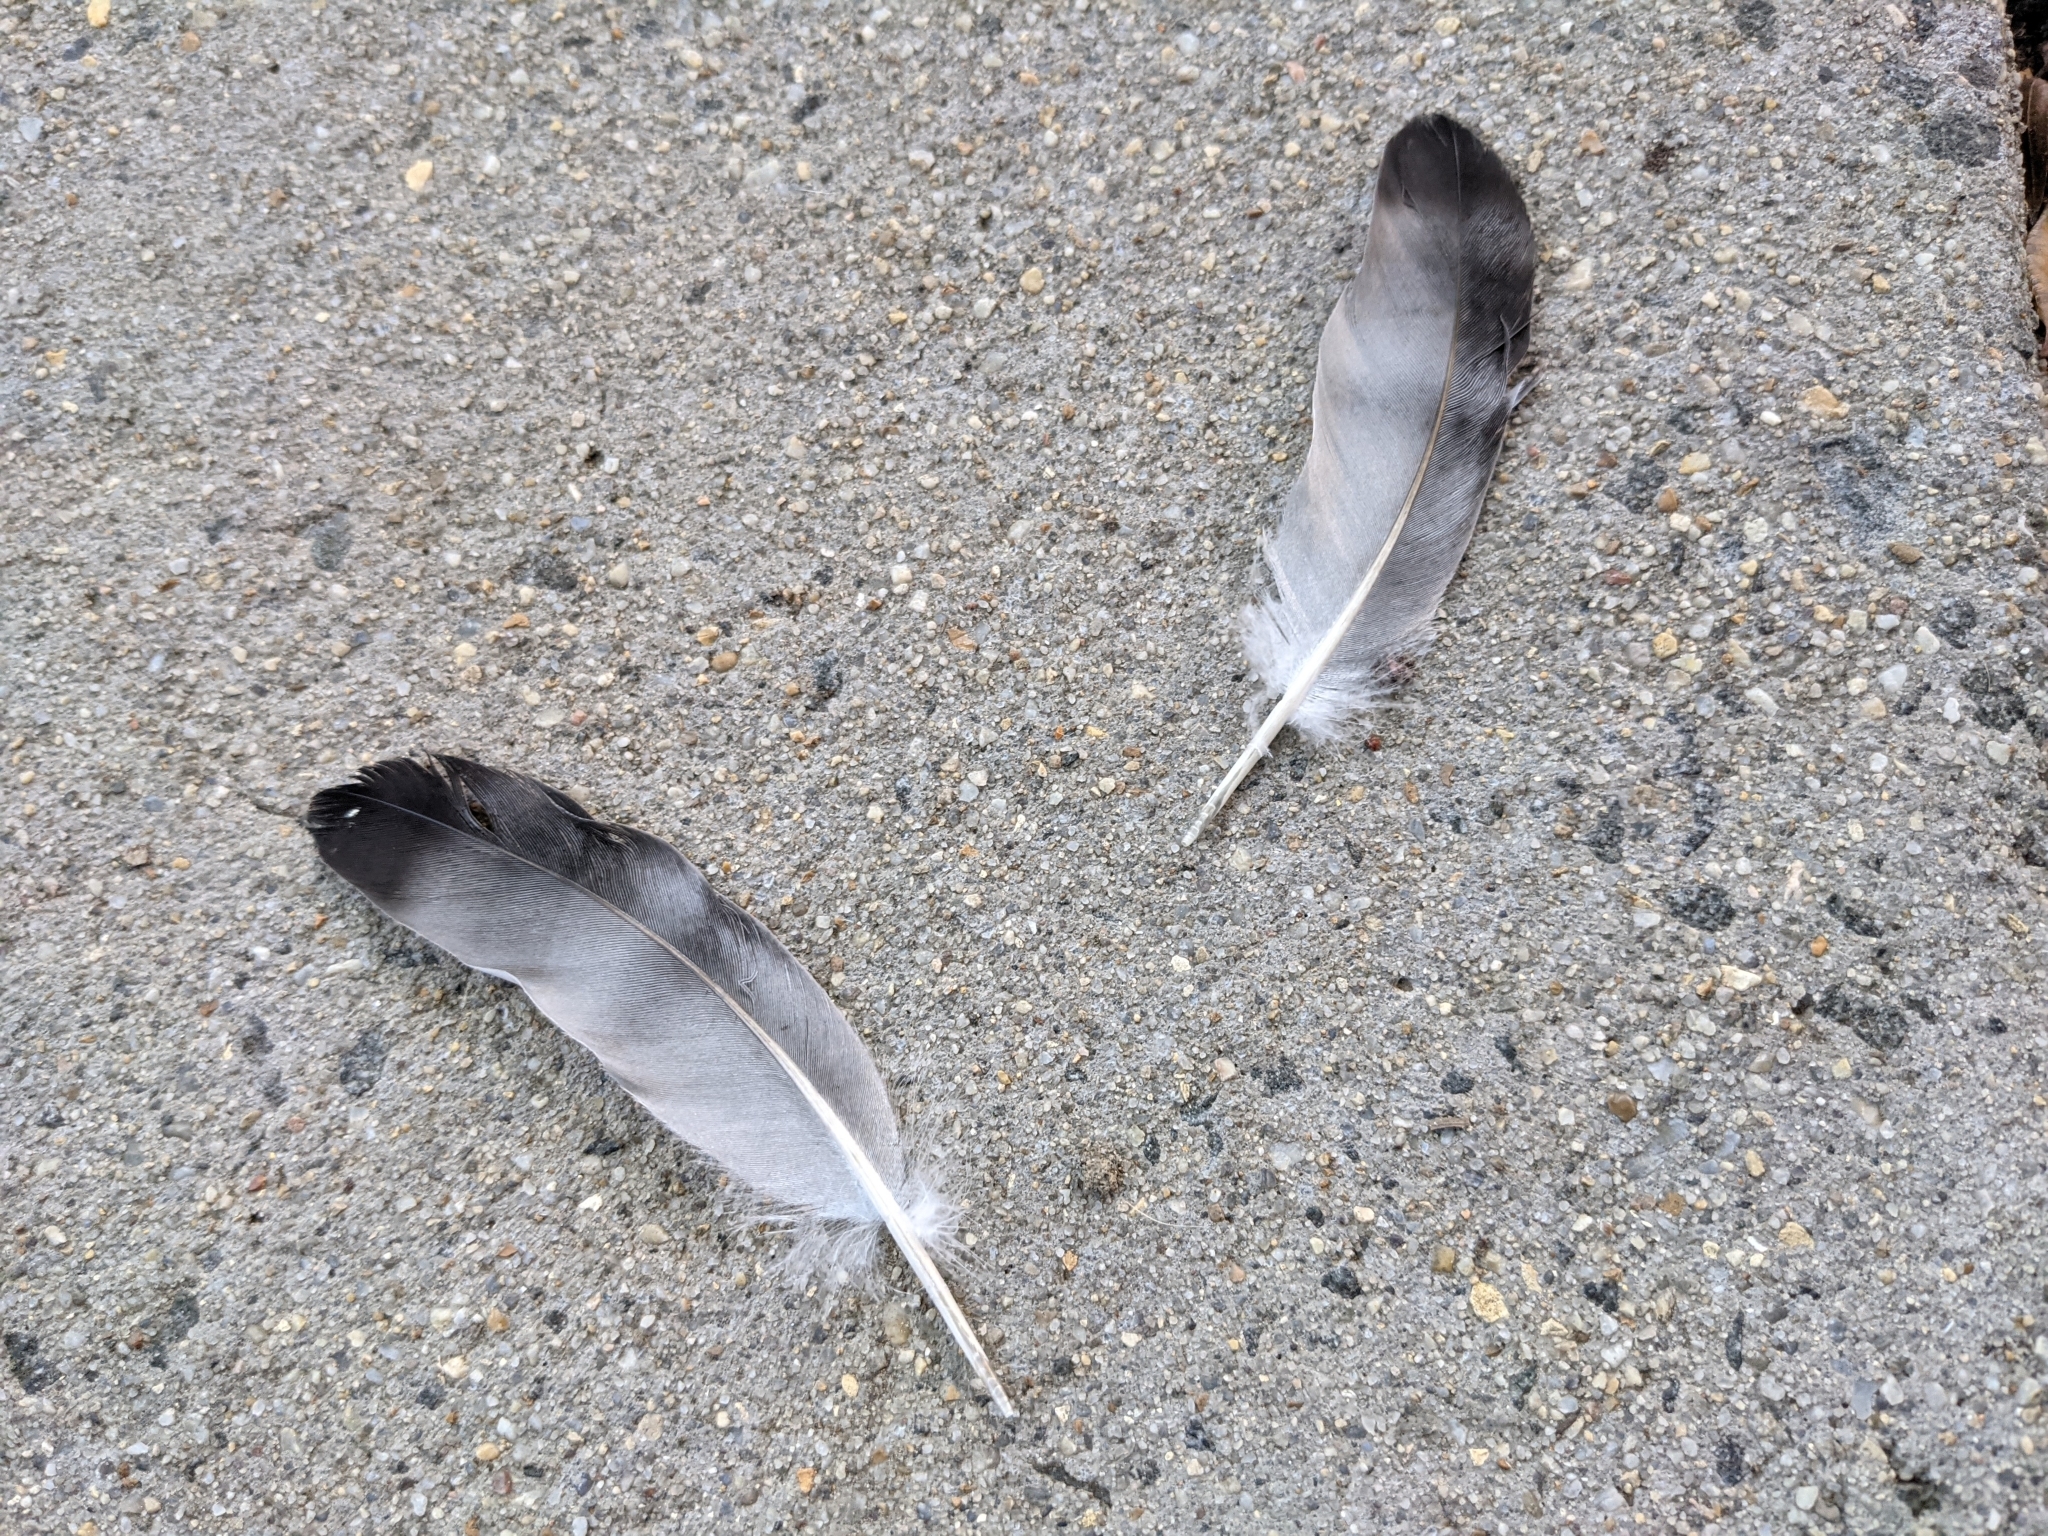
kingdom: Animalia
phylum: Chordata
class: Aves
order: Columbiformes
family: Columbidae
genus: Columba
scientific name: Columba livia
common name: Rock pigeon
